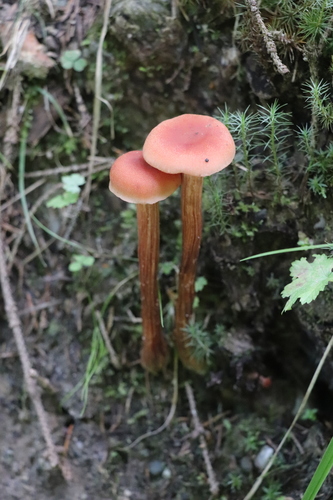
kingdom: Fungi
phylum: Basidiomycota
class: Agaricomycetes
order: Agaricales
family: Hydnangiaceae
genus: Laccaria
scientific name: Laccaria proxima
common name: Scurfy deceiver
